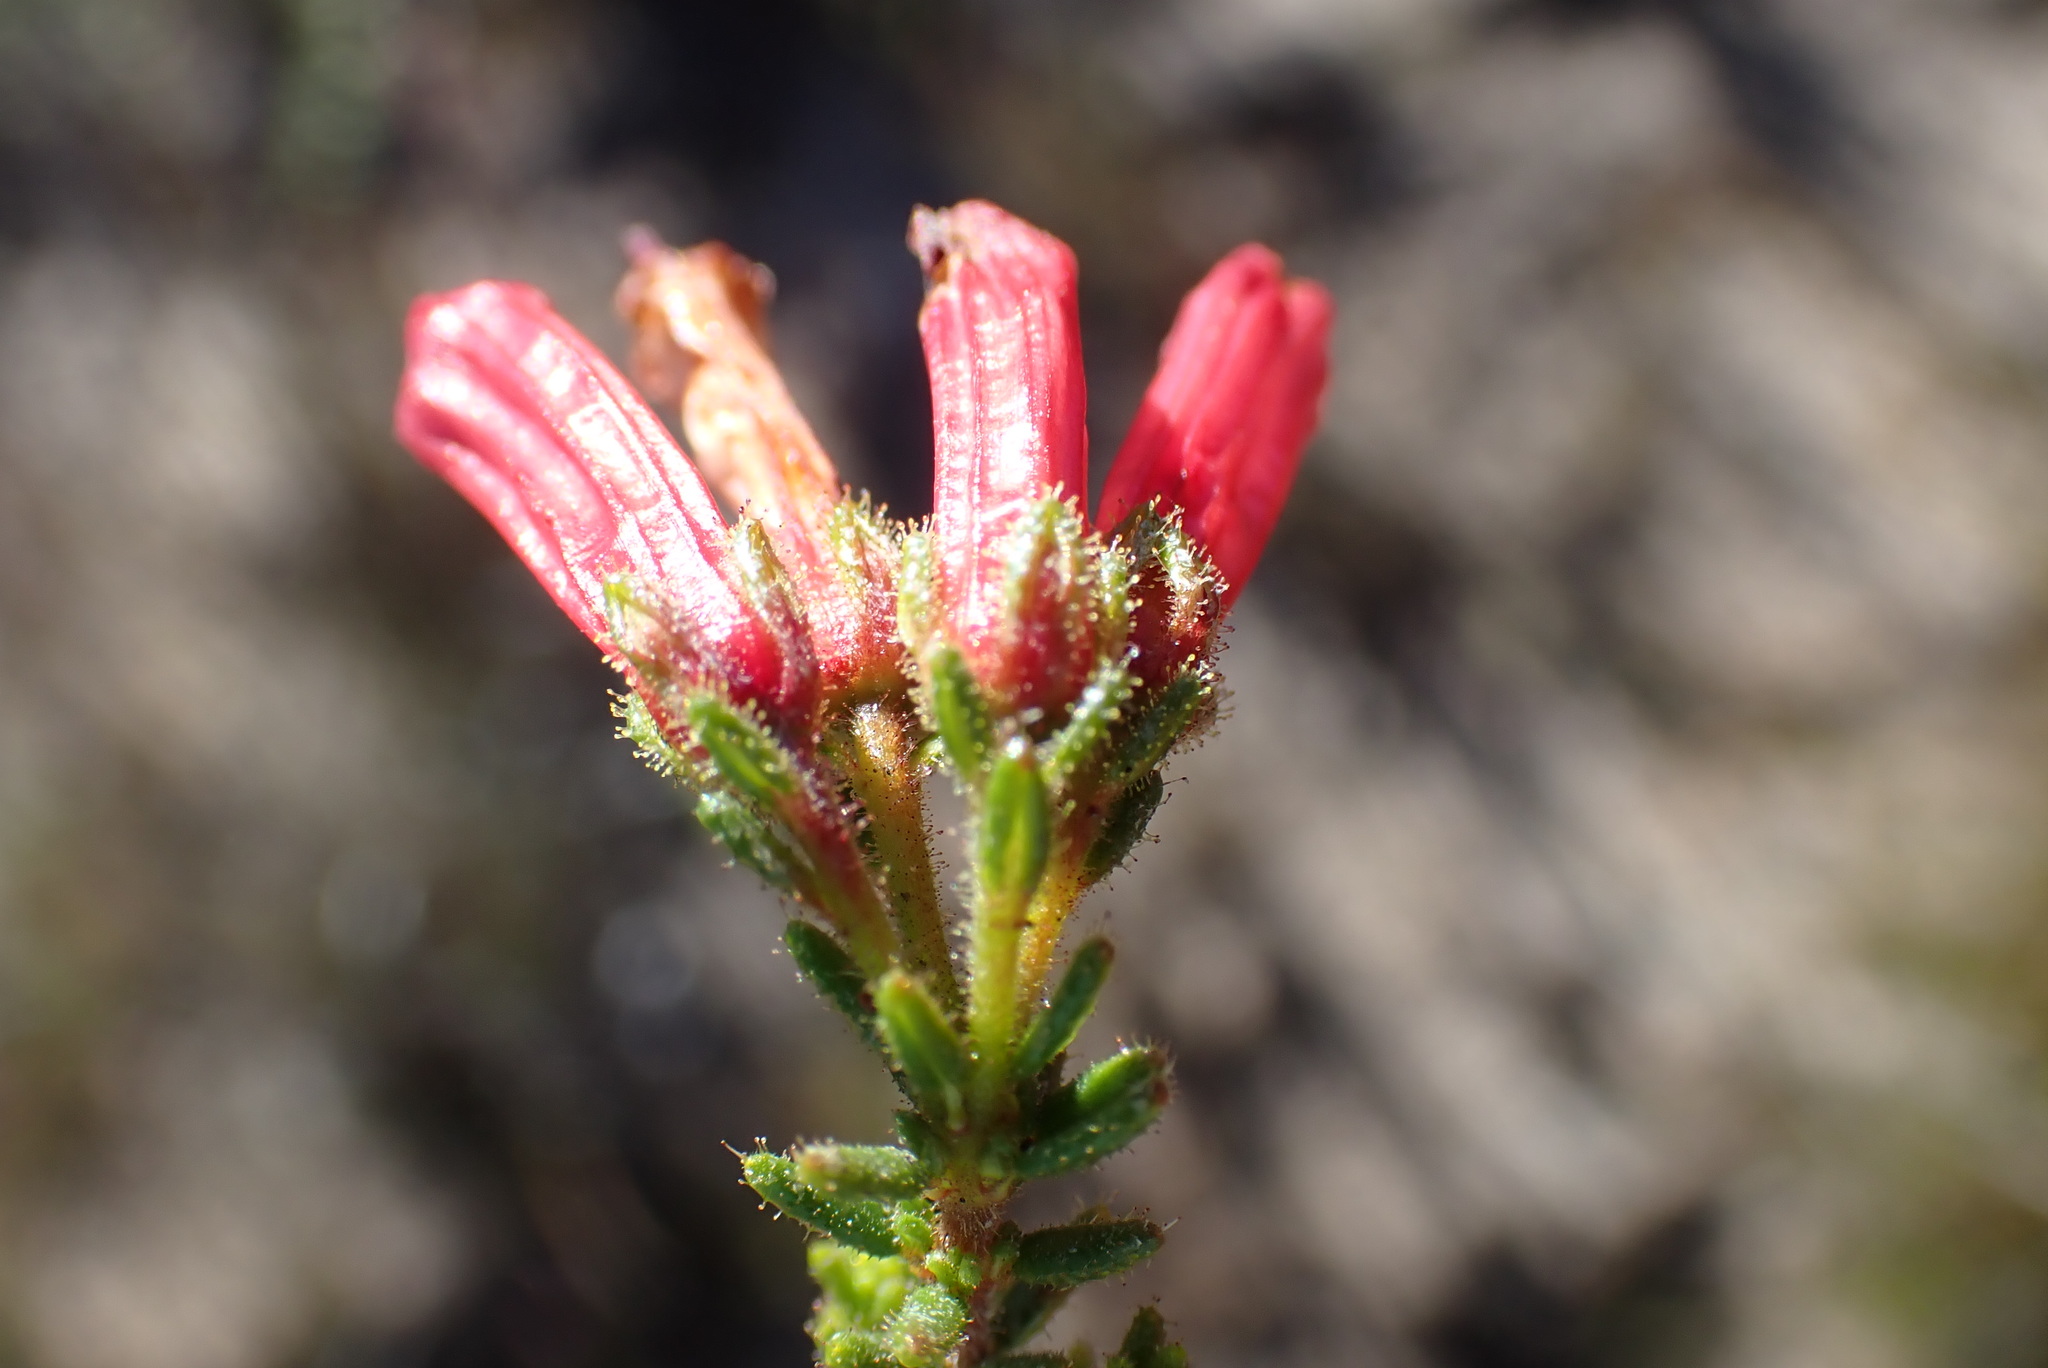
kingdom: Plantae
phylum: Tracheophyta
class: Magnoliopsida
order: Ericales
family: Ericaceae
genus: Erica
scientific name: Erica glandulosa
